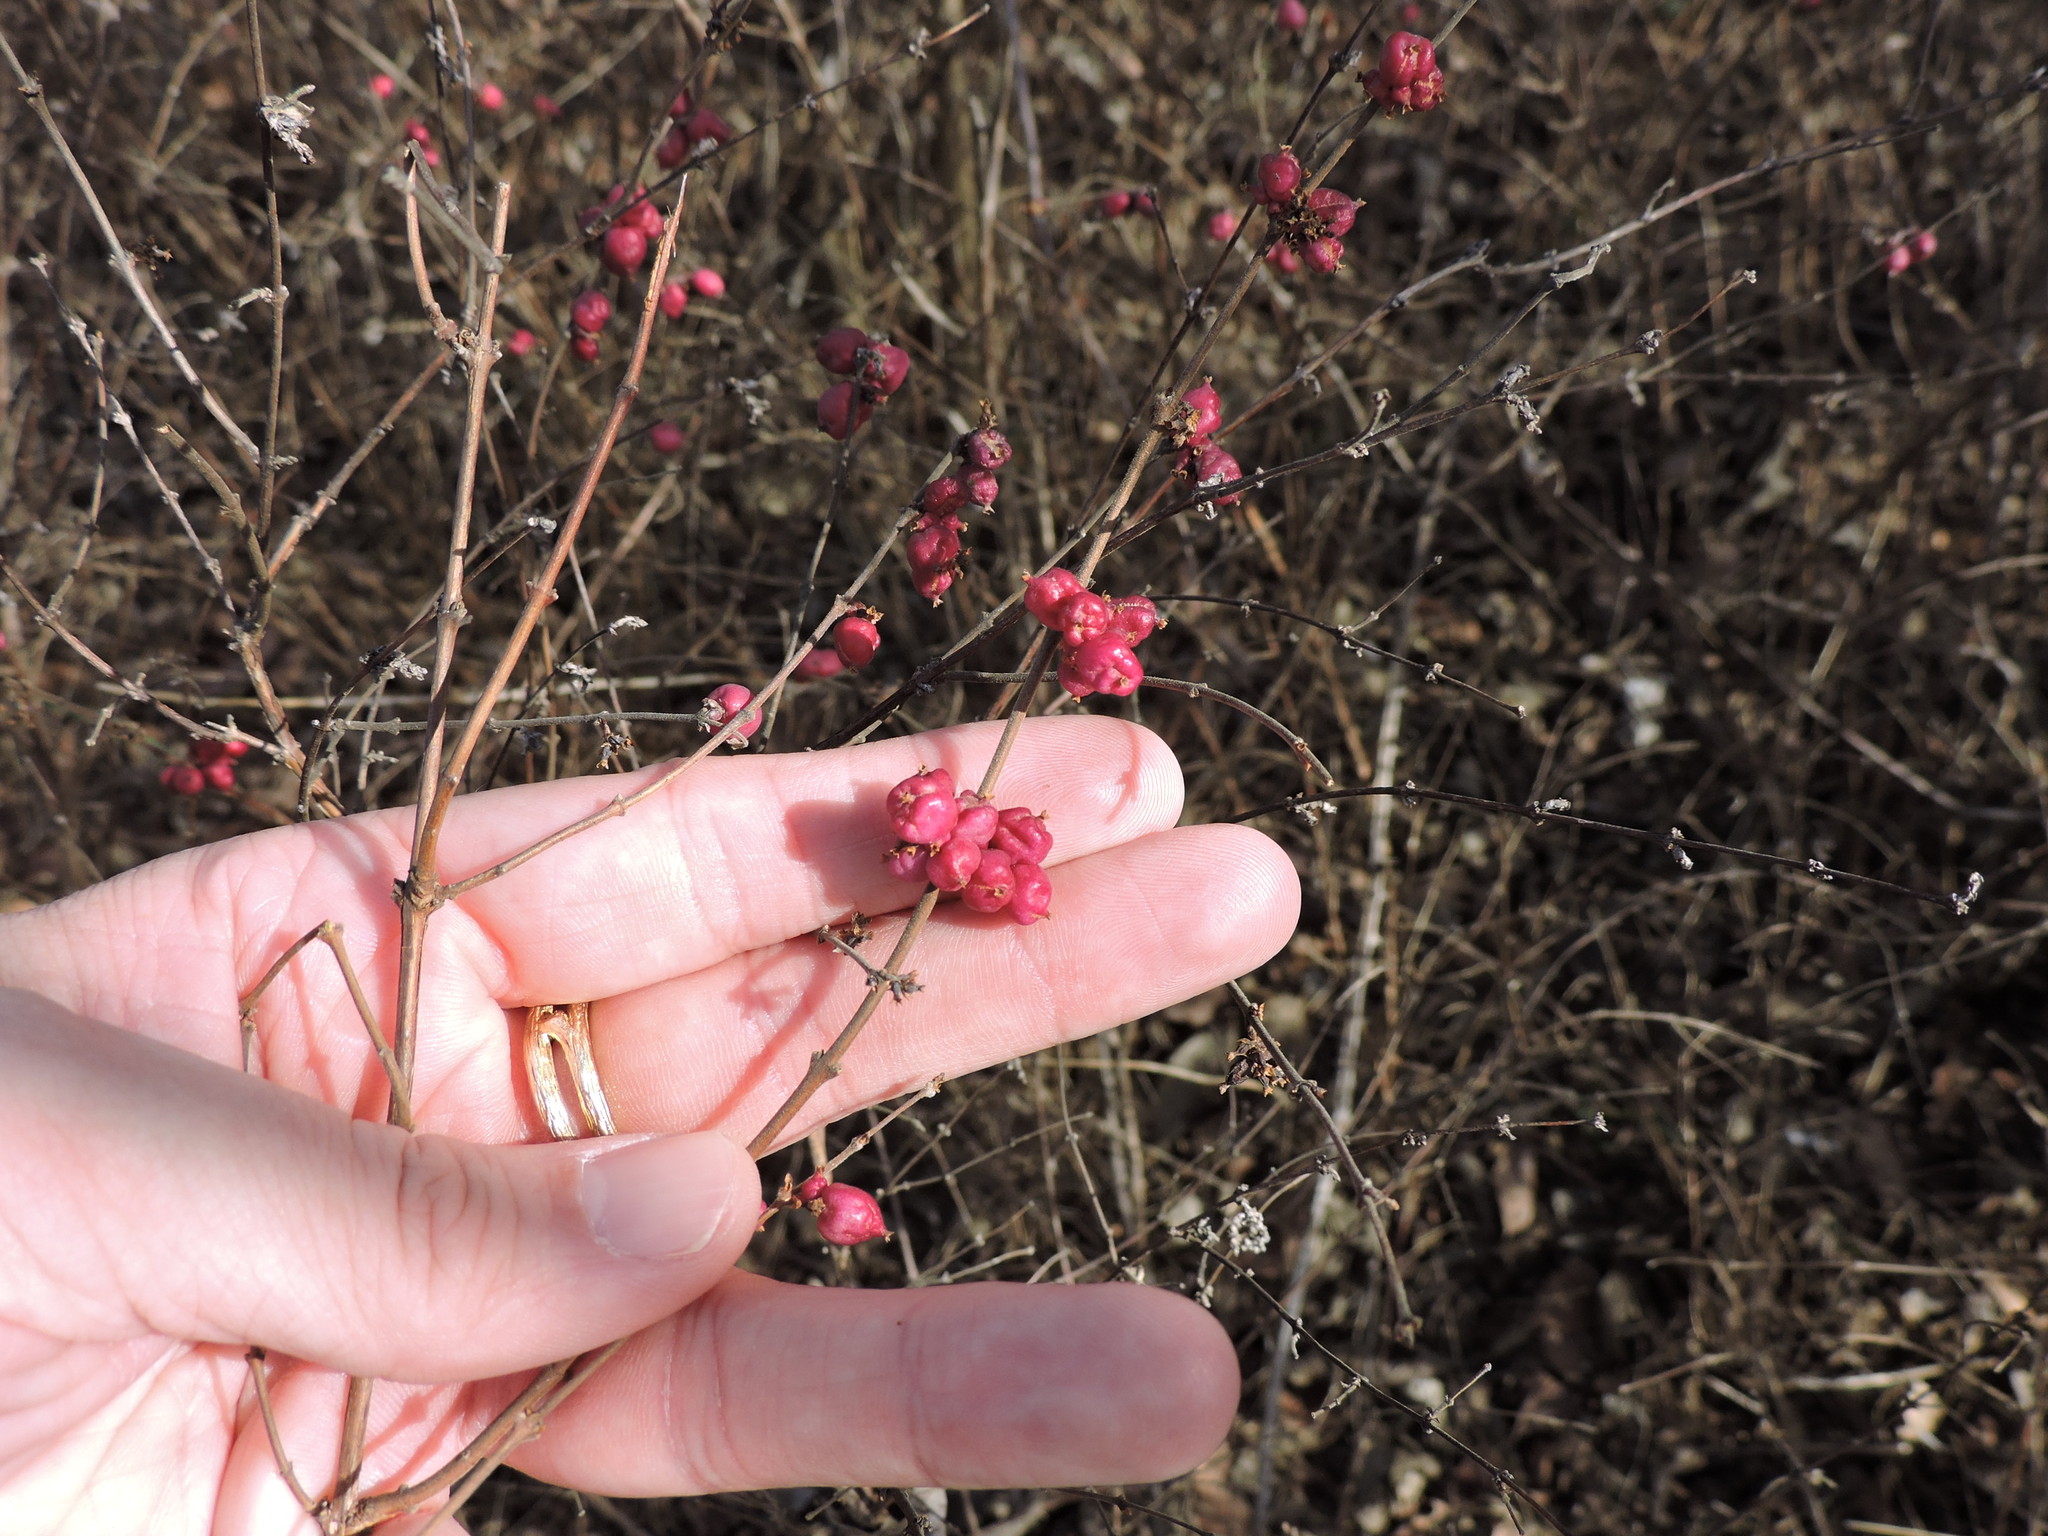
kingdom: Plantae
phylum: Tracheophyta
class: Magnoliopsida
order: Dipsacales
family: Caprifoliaceae
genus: Symphoricarpos
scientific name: Symphoricarpos orbiculatus
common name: Coralberry
